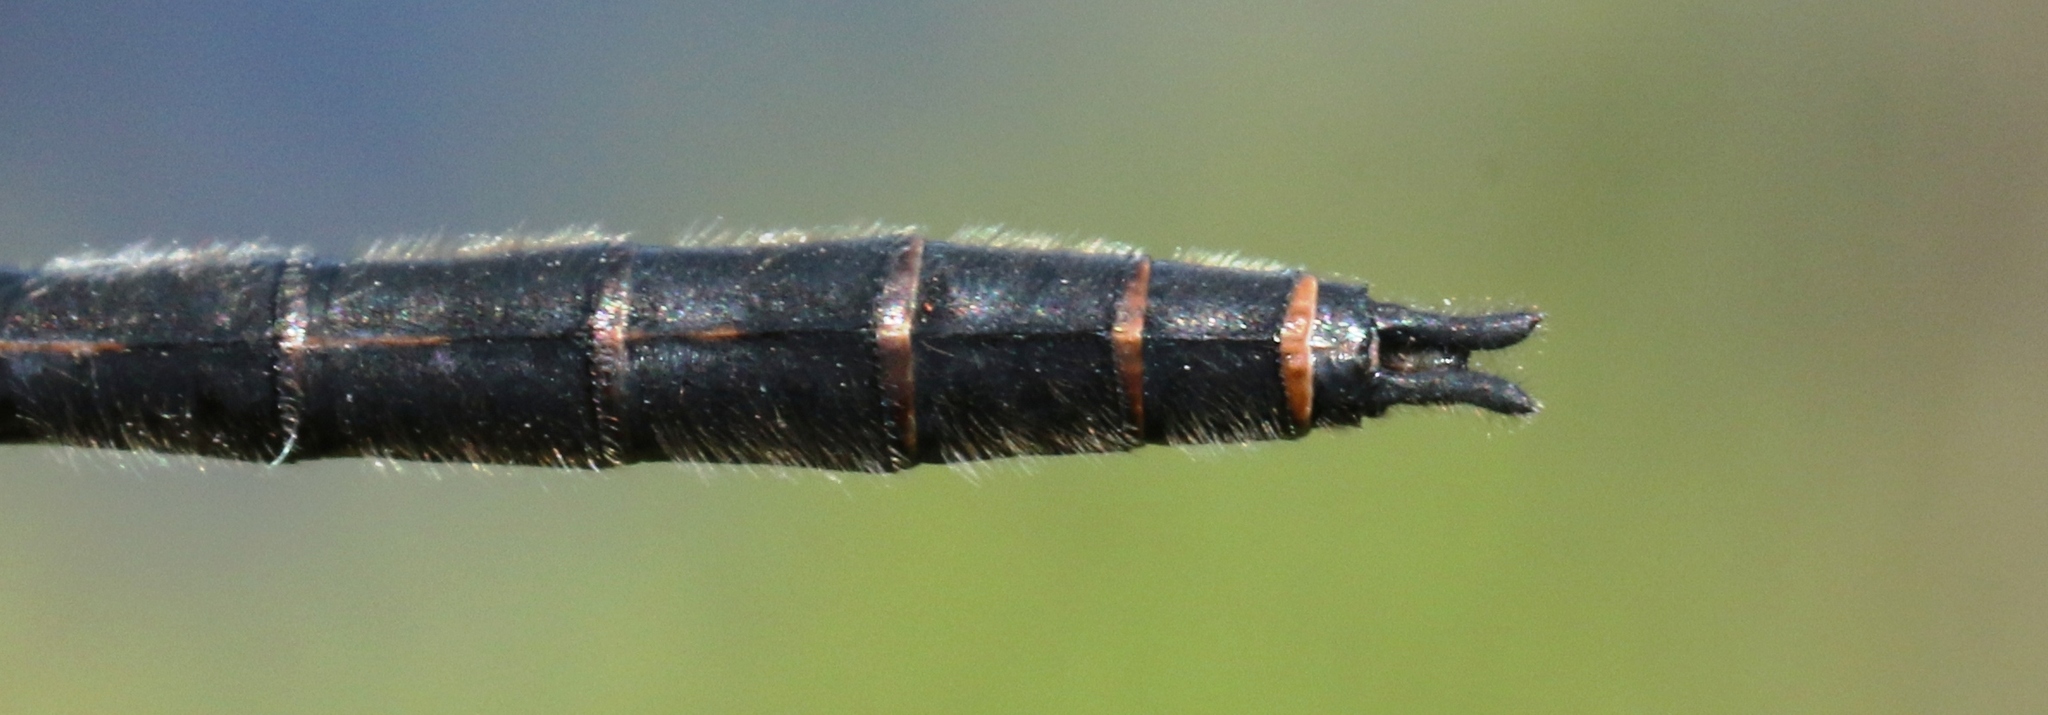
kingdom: Animalia
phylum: Arthropoda
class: Insecta
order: Odonata
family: Libellulidae
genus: Leucorrhinia
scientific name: Leucorrhinia proxima
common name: Belted whiteface
